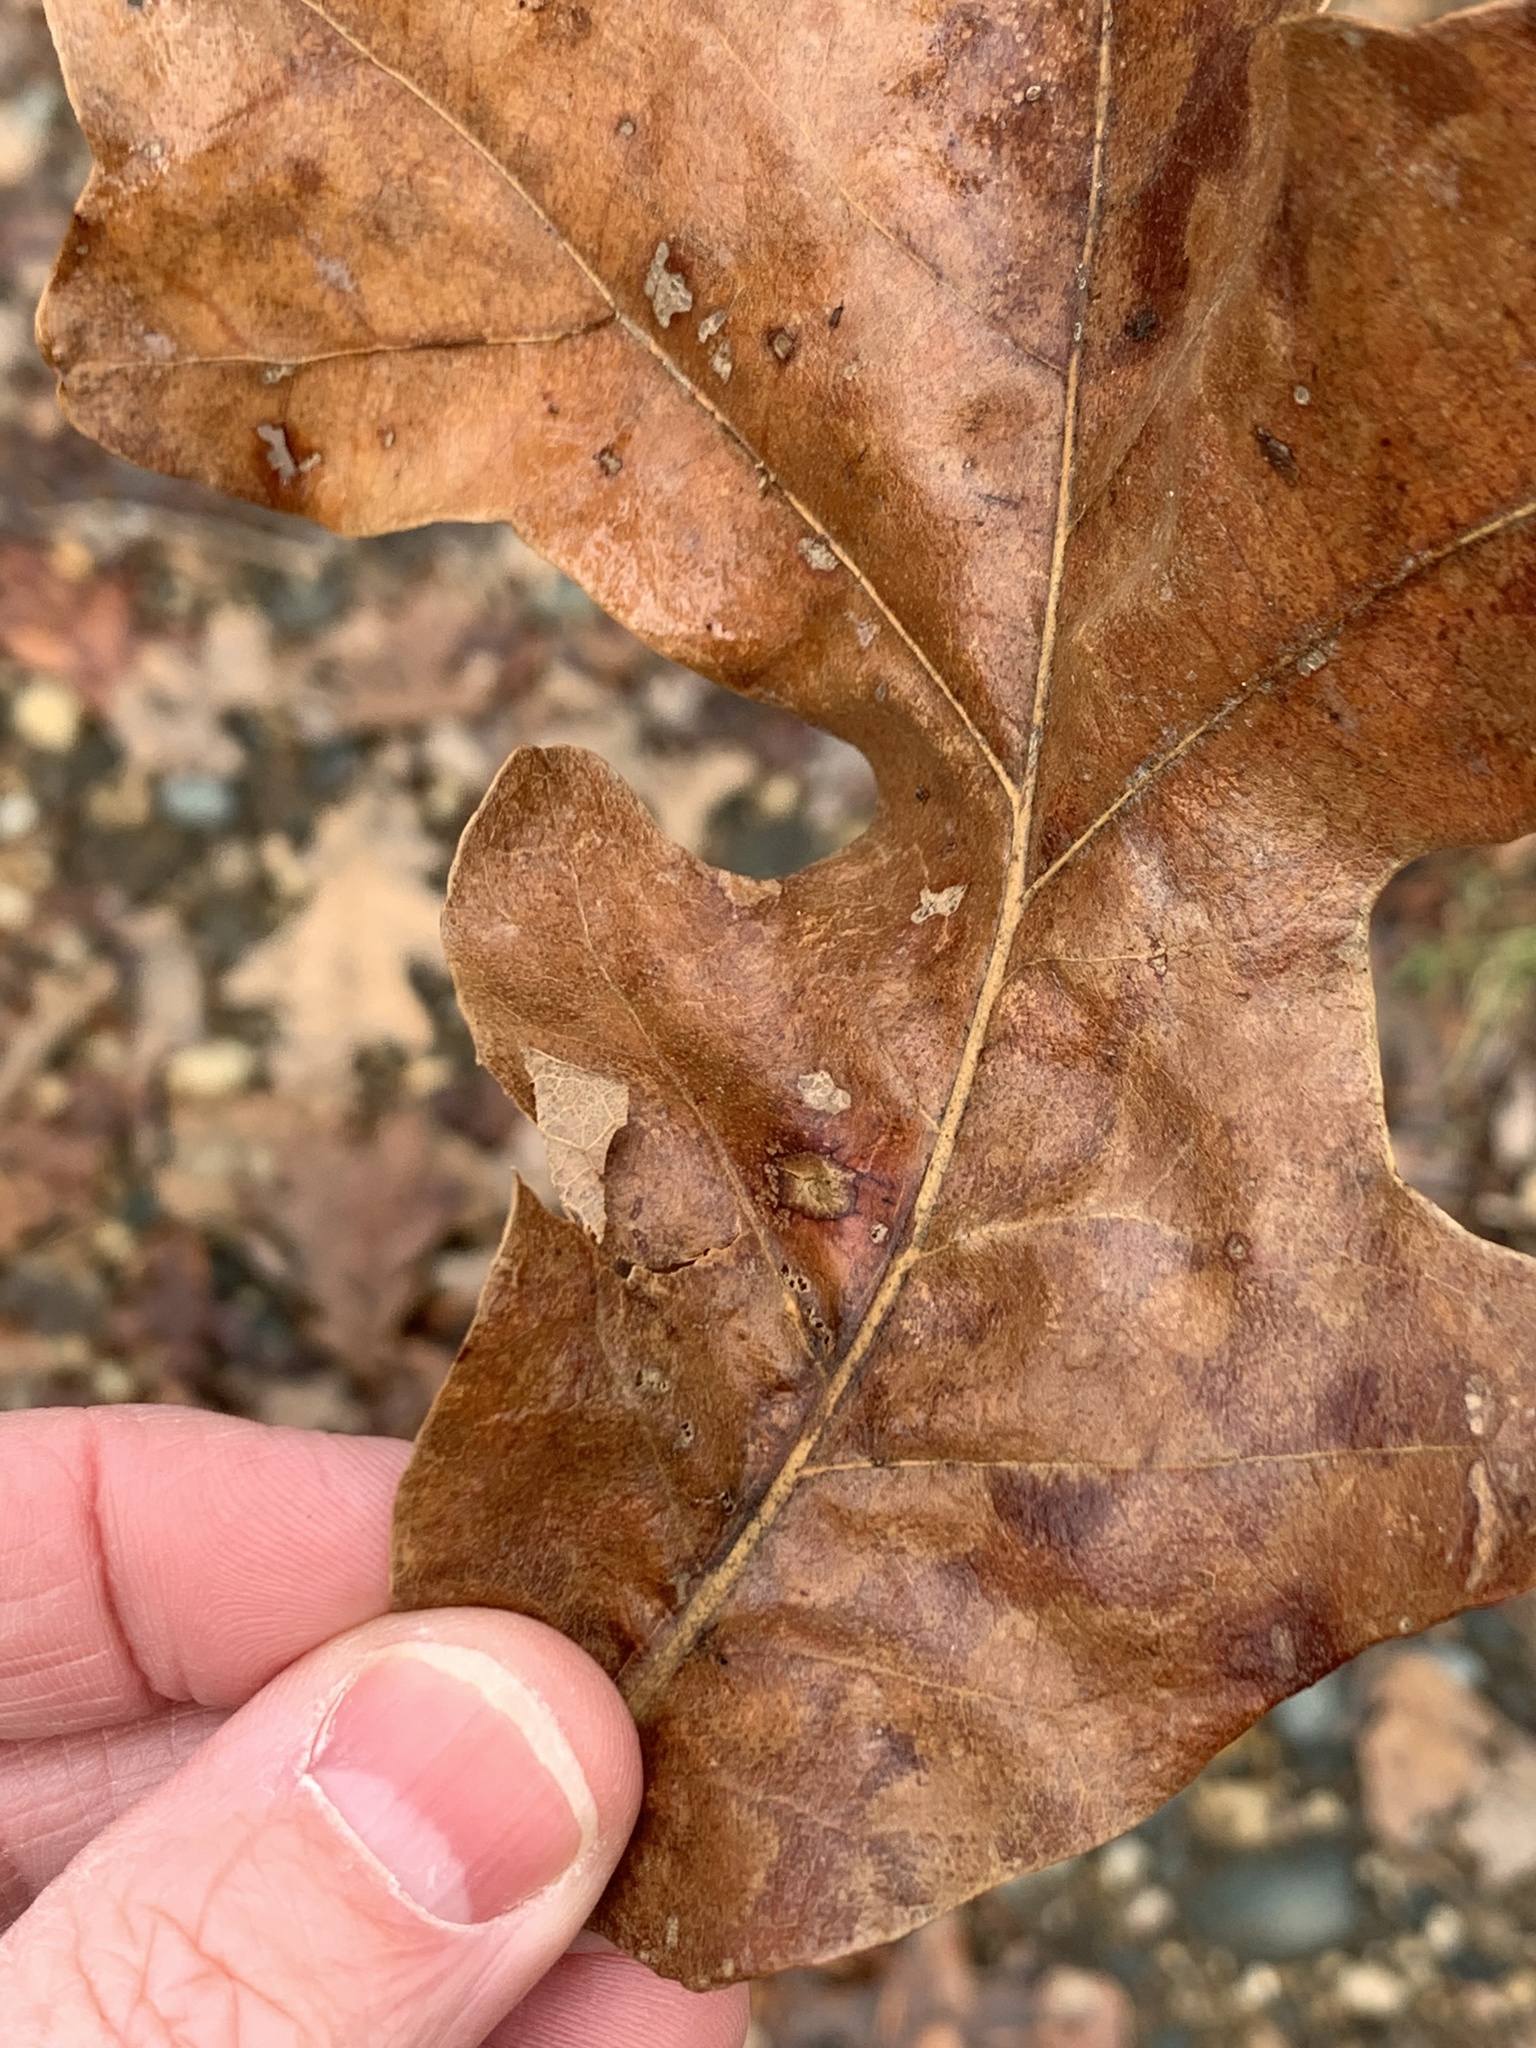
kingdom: Animalia
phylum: Arthropoda
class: Insecta
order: Hymenoptera
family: Cynipidae
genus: Atrusca
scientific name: Atrusca
